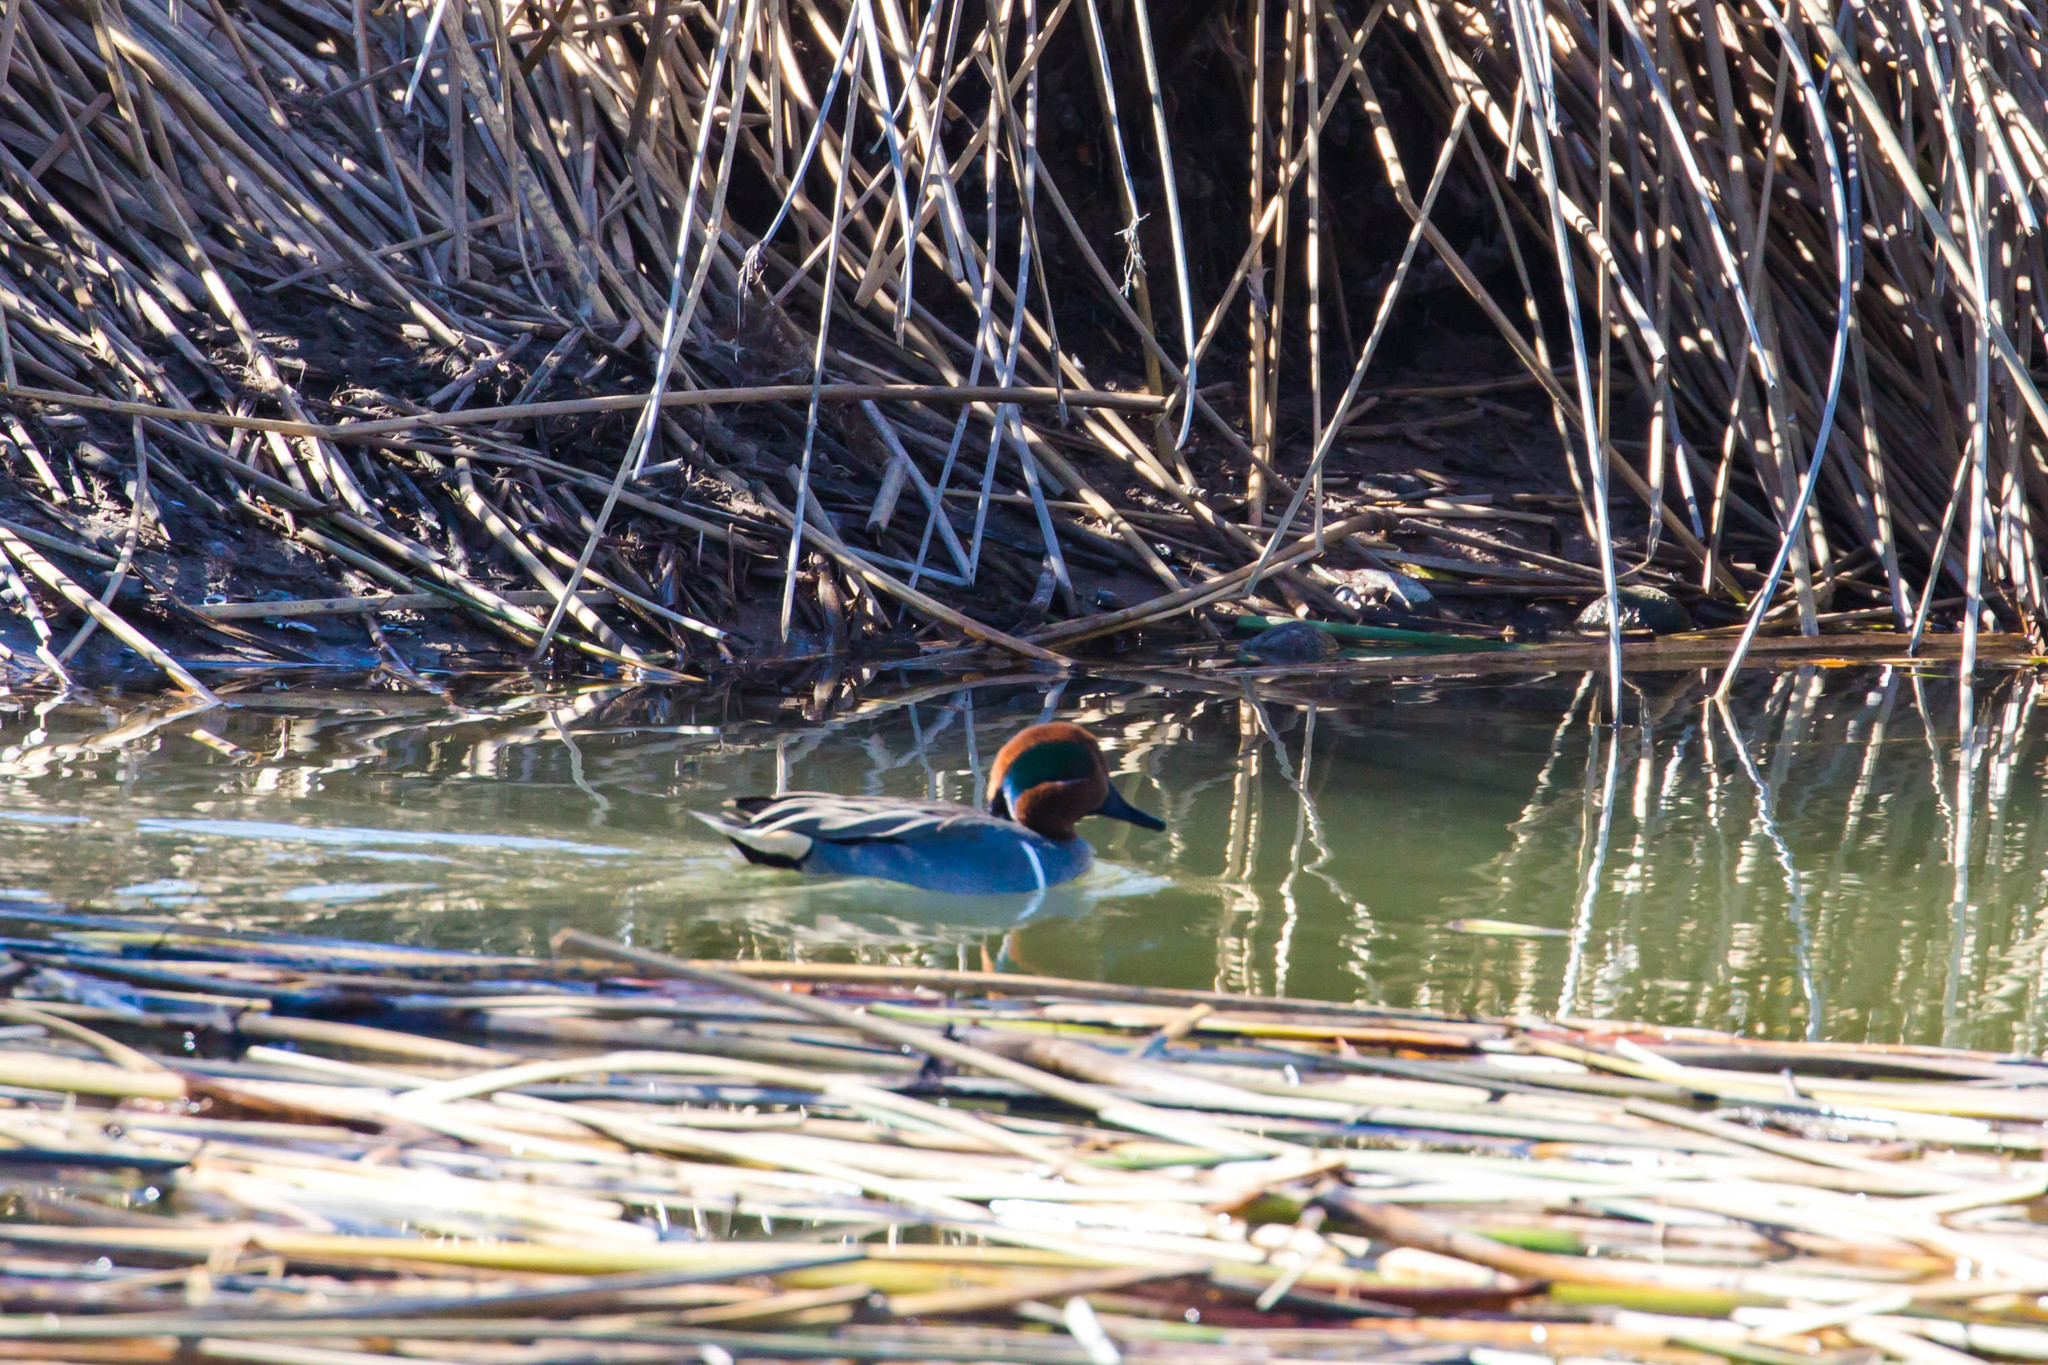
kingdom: Animalia
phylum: Chordata
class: Aves
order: Anseriformes
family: Anatidae
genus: Anas
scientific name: Anas crecca
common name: Eurasian teal
